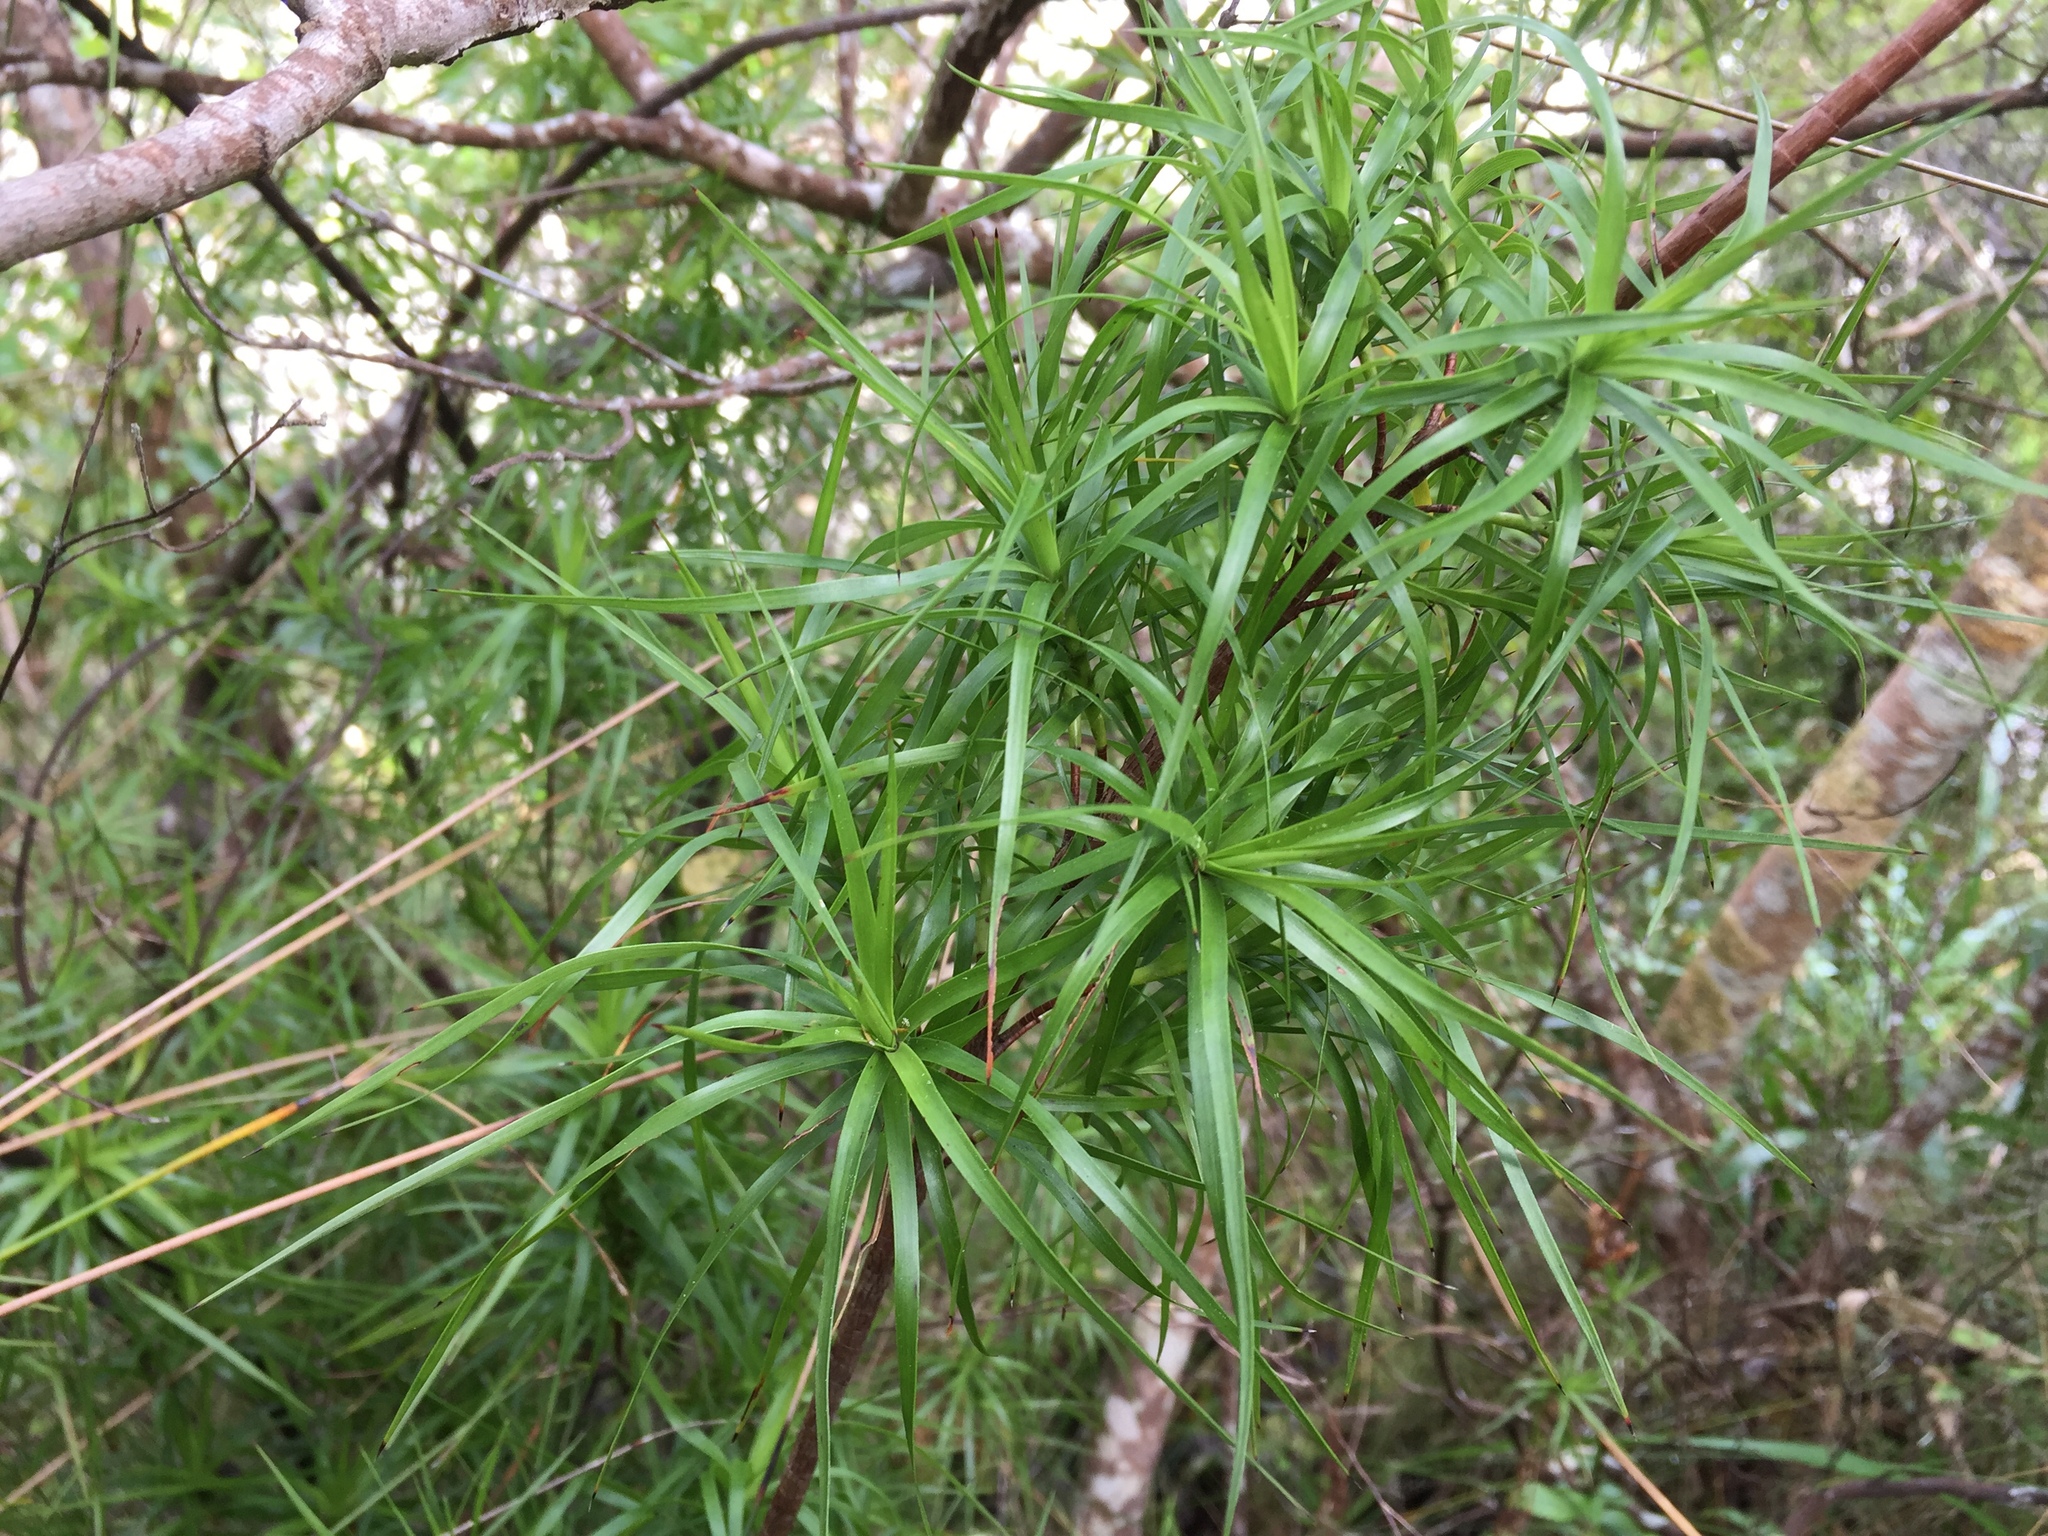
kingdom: Plantae
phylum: Tracheophyta
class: Magnoliopsida
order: Ericales
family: Ericaceae
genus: Dracophyllum
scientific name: Dracophyllum sinclairii
